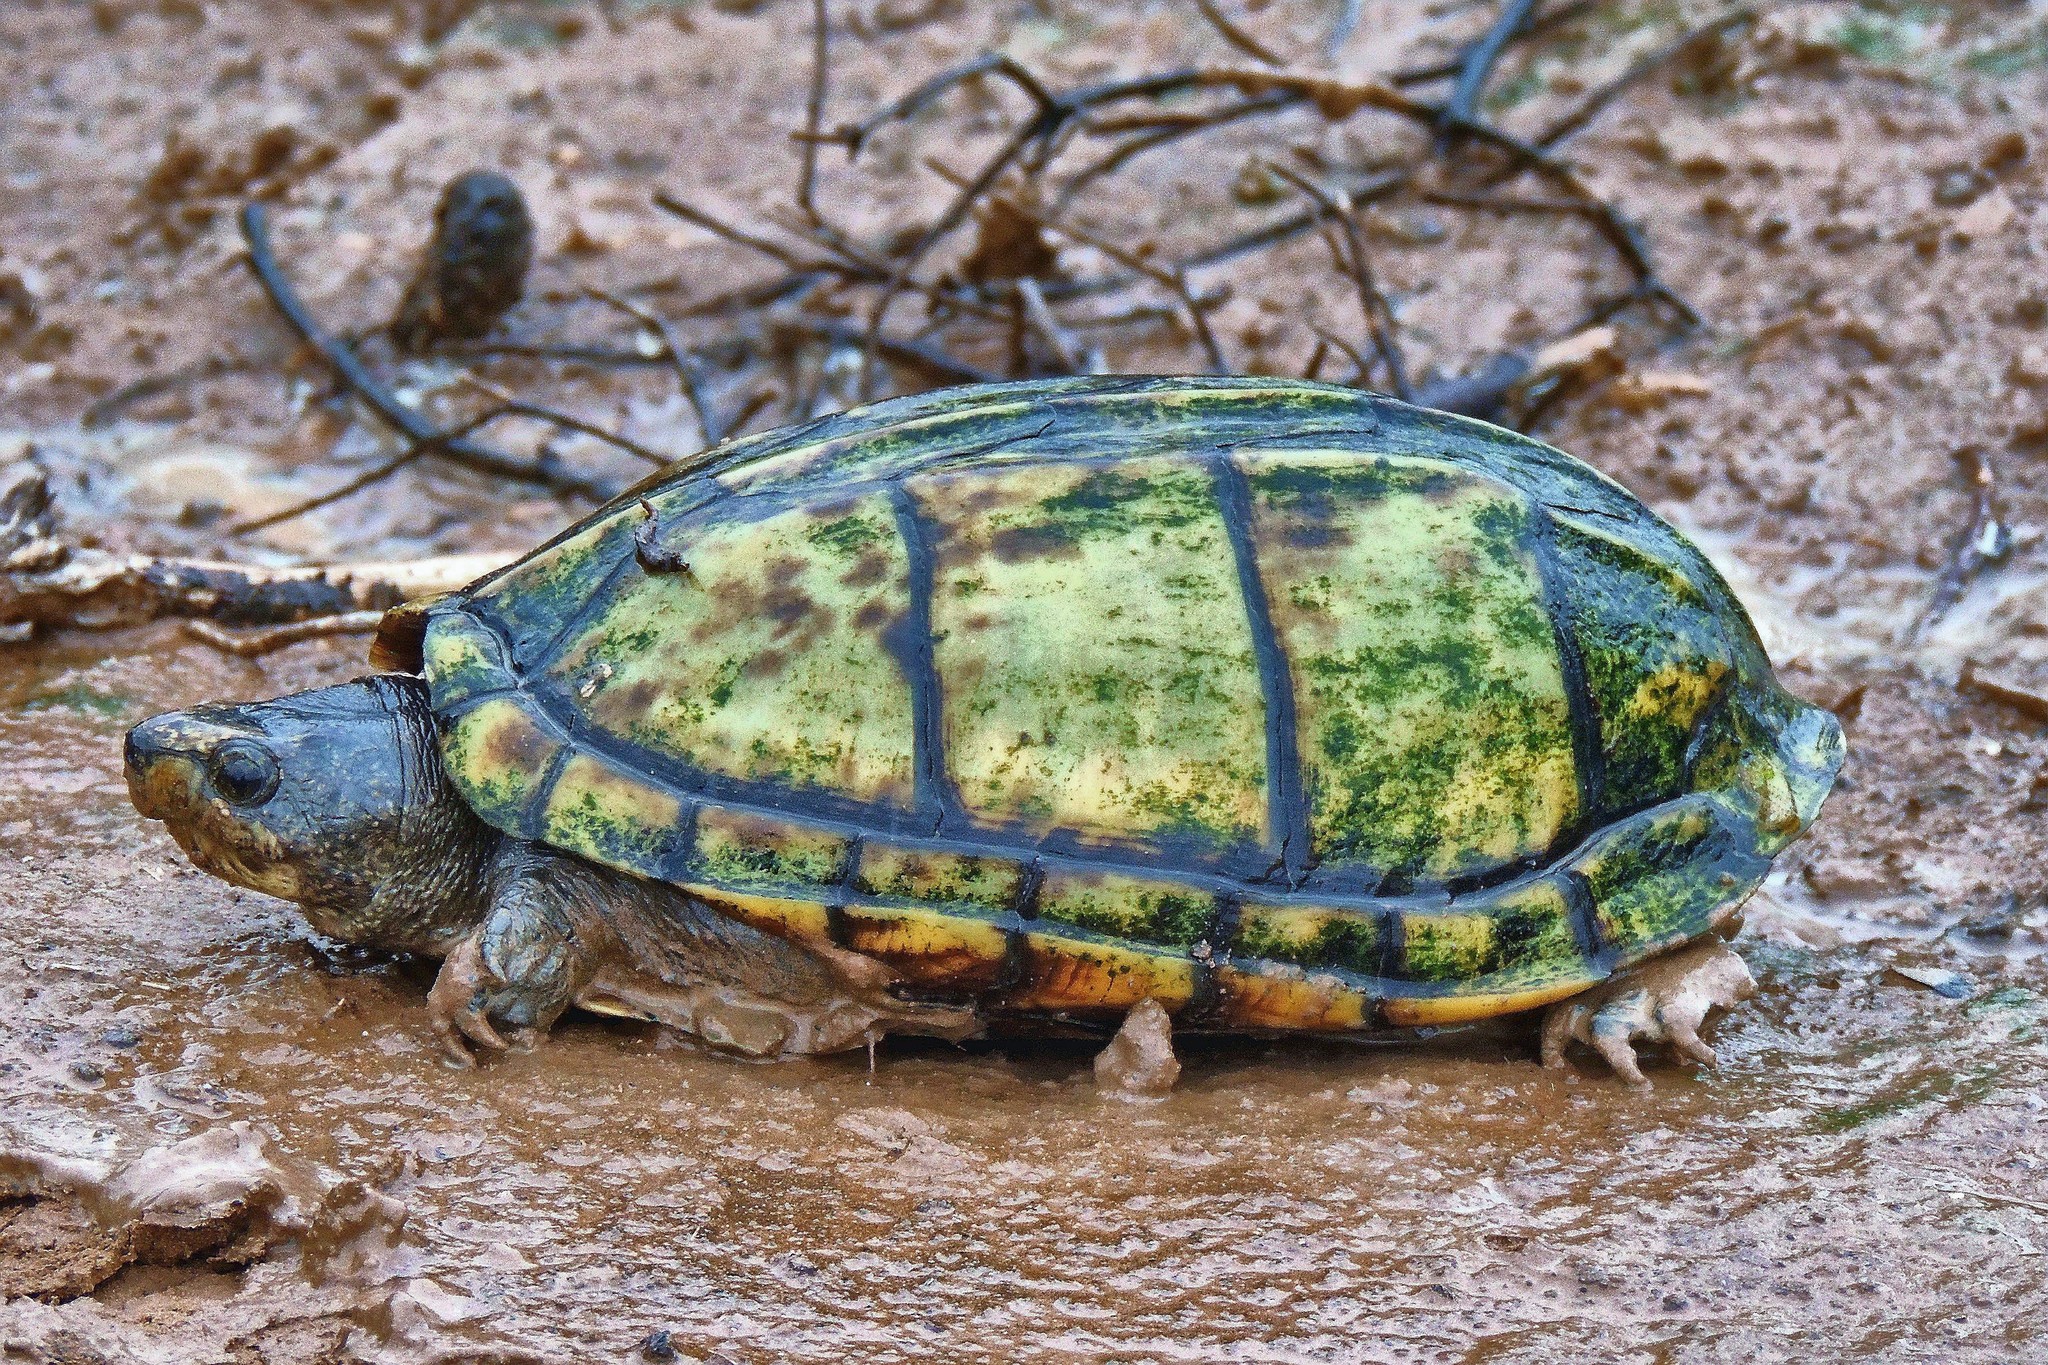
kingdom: Animalia
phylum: Chordata
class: Testudines
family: Kinosternidae
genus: Kinosternon
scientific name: Kinosternon scorpioides
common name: Scorpion mud turtle
